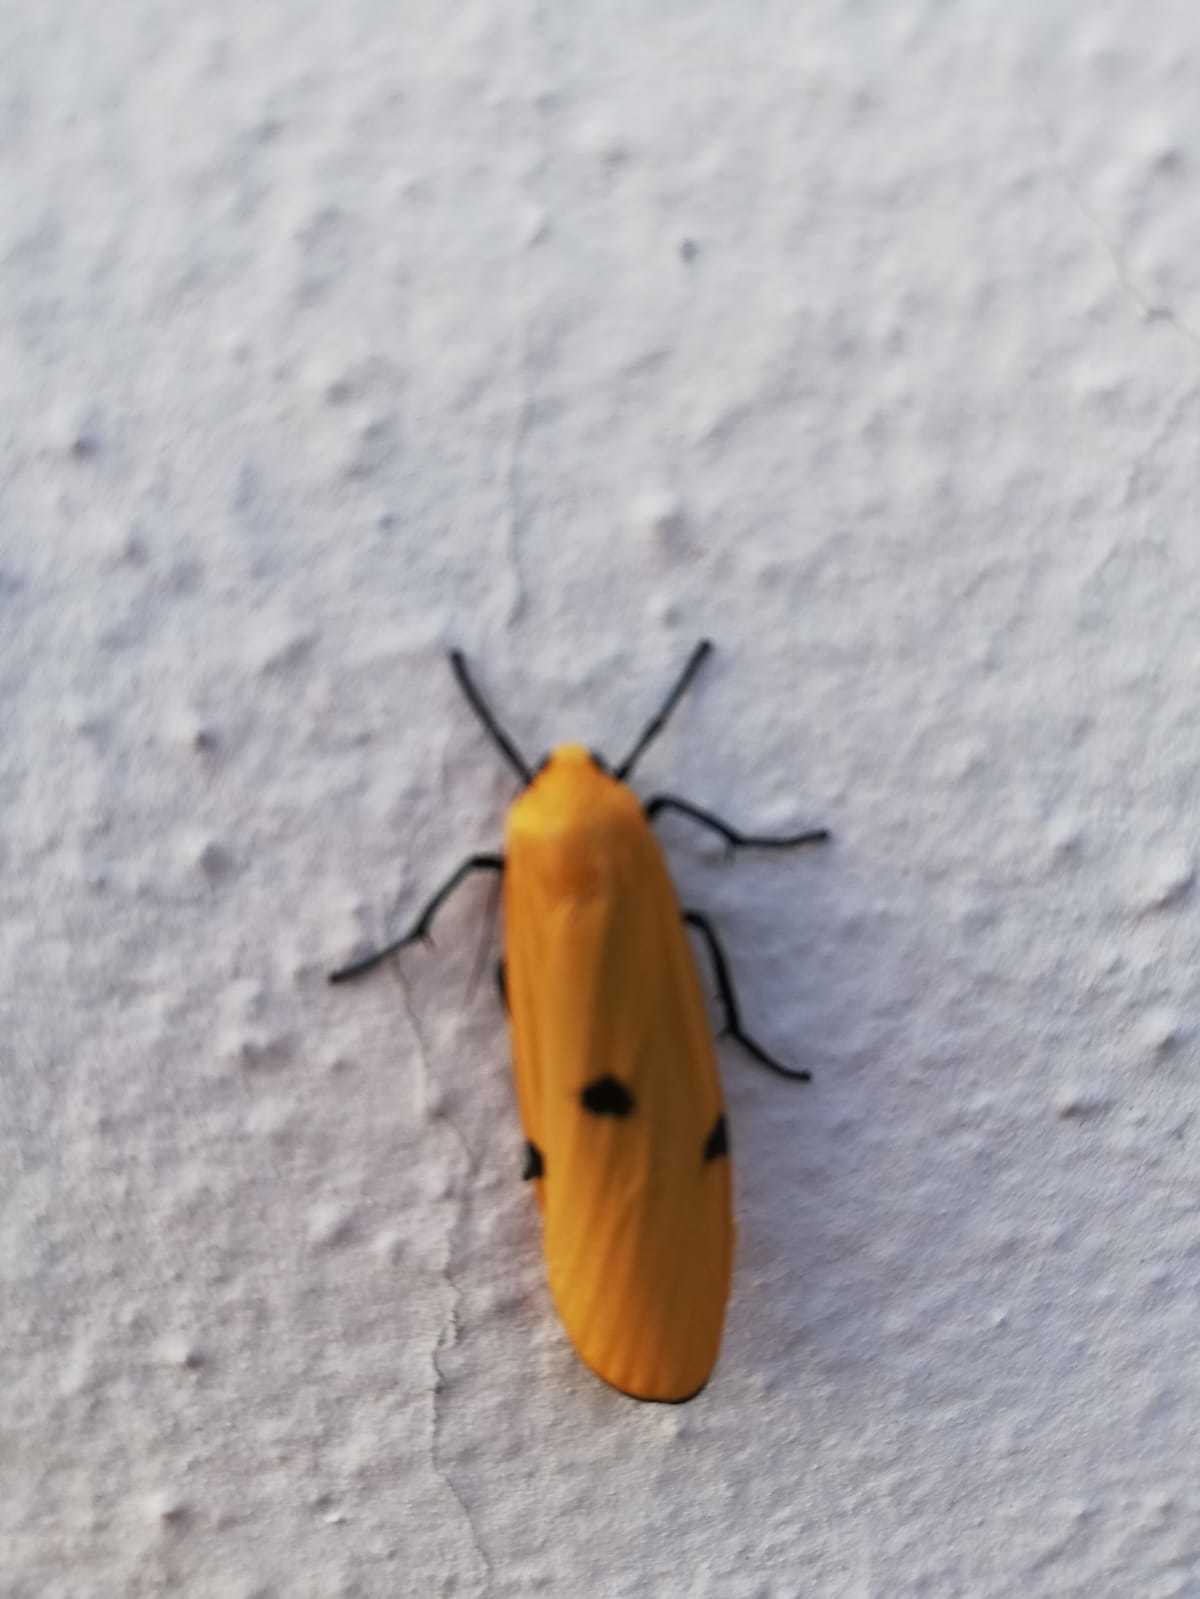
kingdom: Animalia
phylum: Arthropoda
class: Insecta
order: Lepidoptera
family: Erebidae
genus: Lithosia
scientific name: Lithosia quadra
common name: Four-spotted footman
